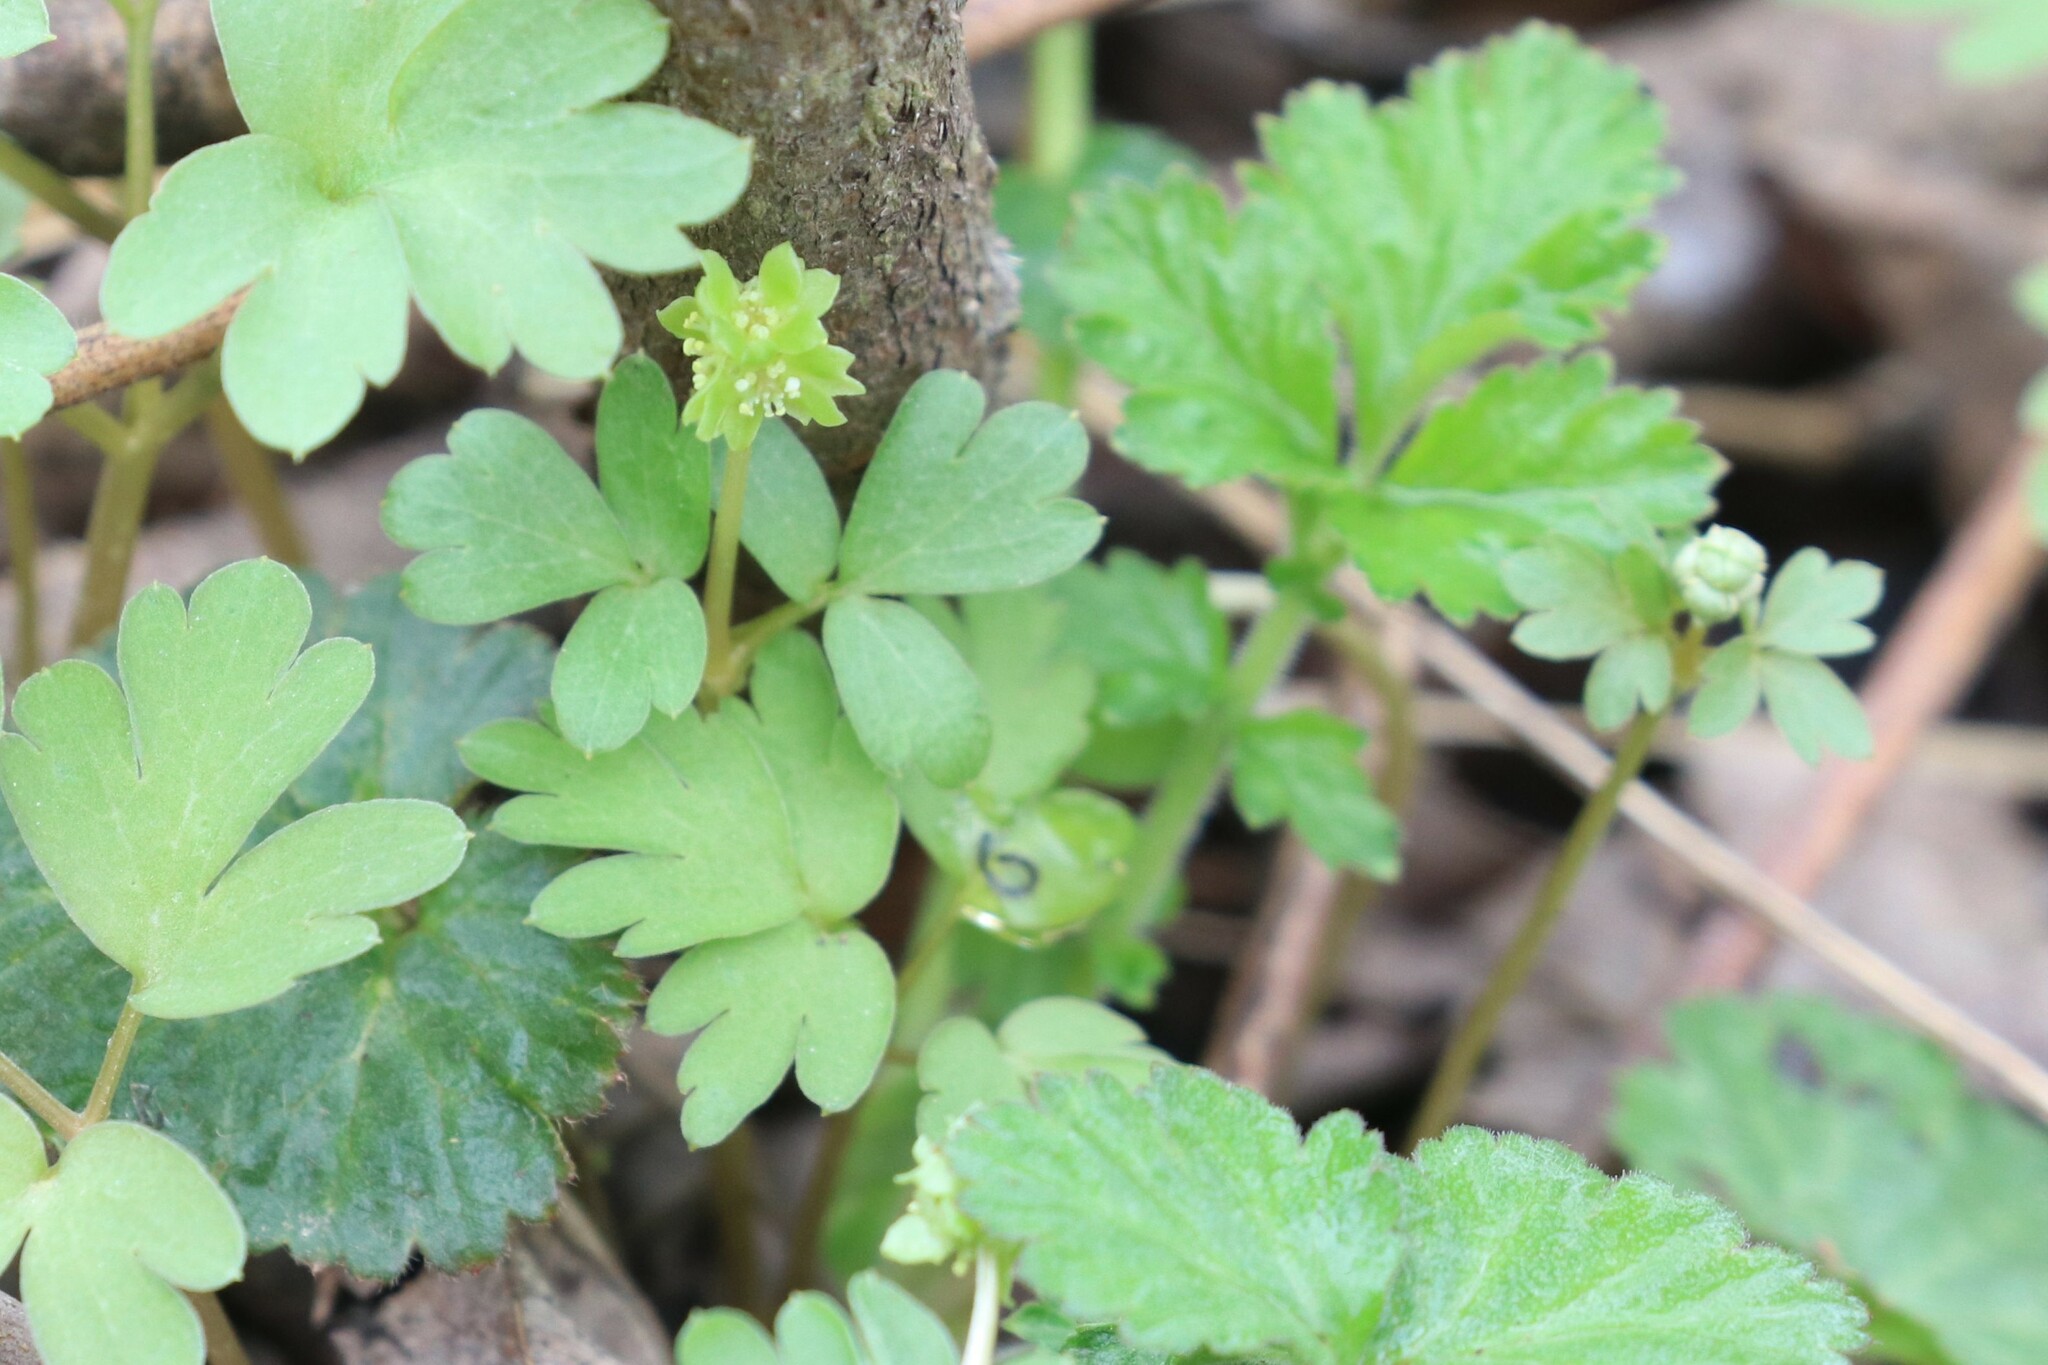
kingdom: Plantae
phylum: Tracheophyta
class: Magnoliopsida
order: Dipsacales
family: Viburnaceae
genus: Adoxa
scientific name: Adoxa moschatellina
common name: Moschatel
